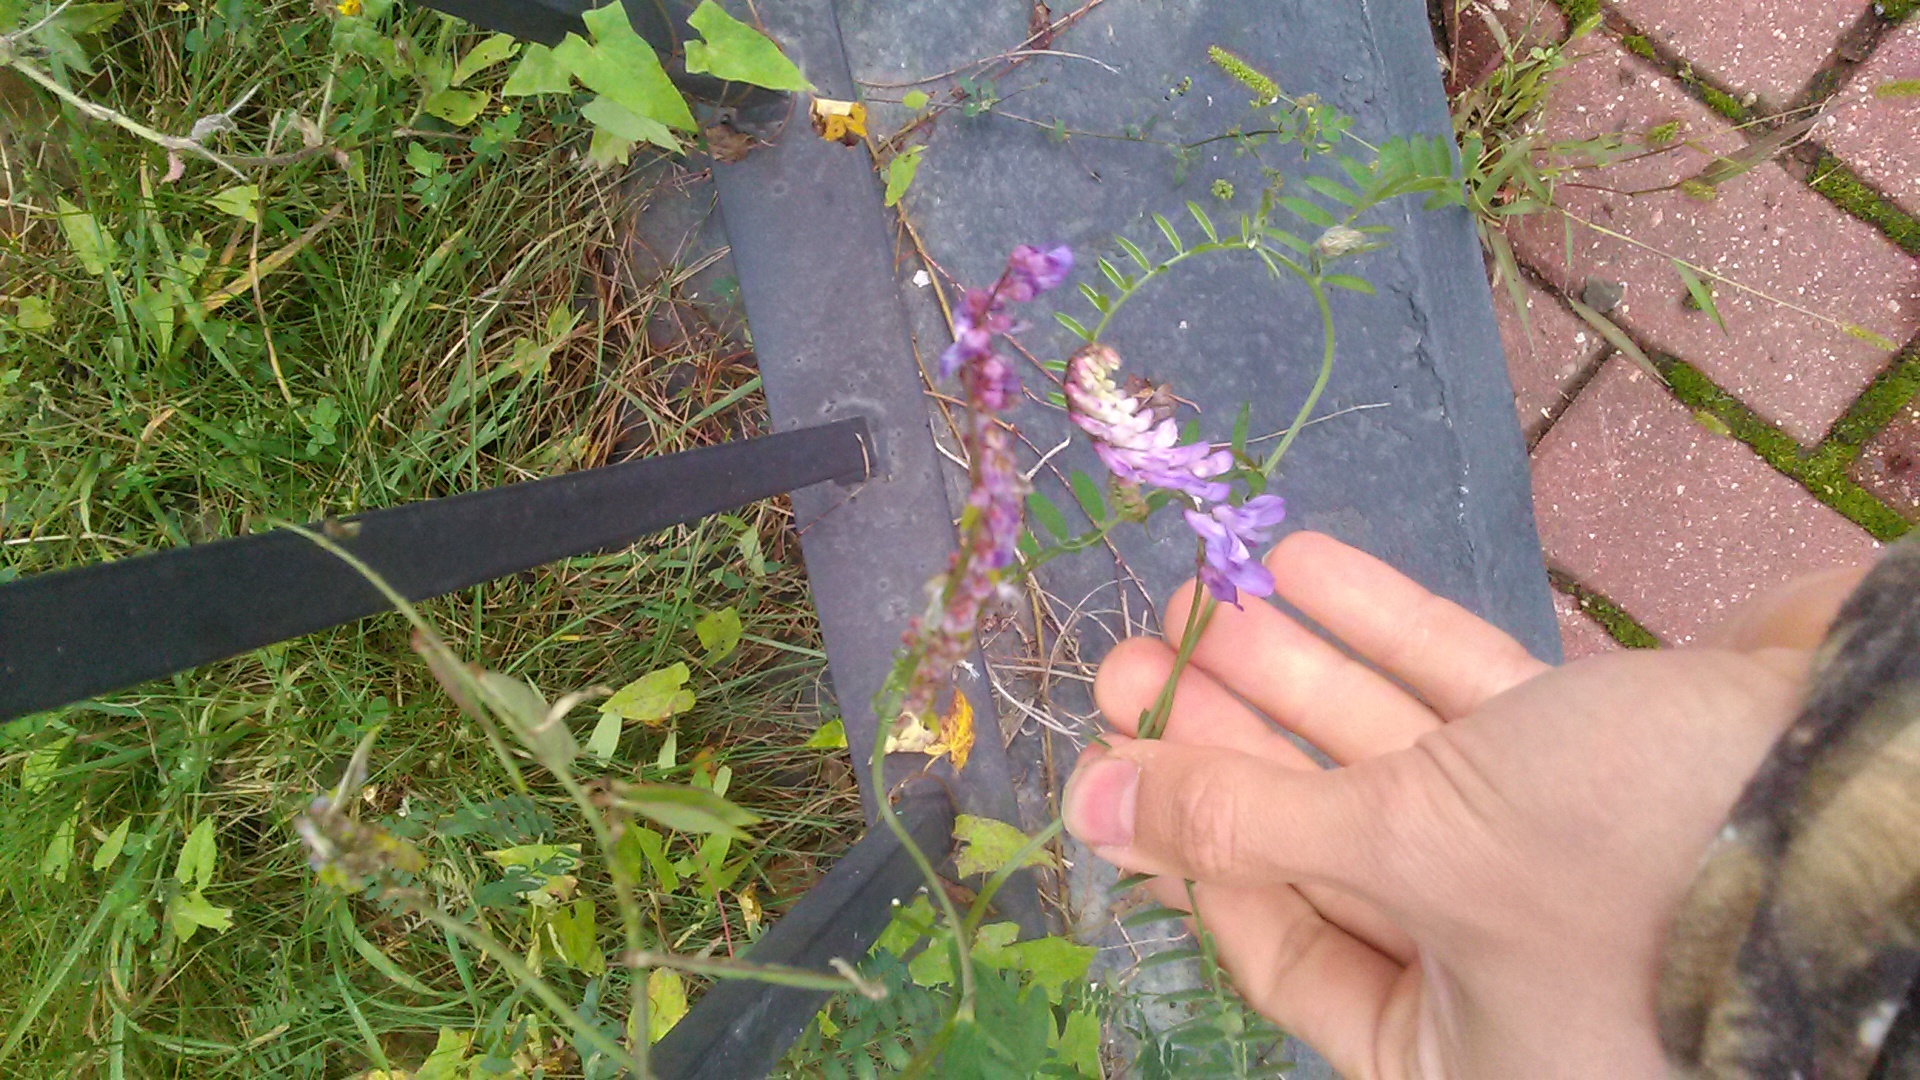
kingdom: Plantae
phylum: Tracheophyta
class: Magnoliopsida
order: Fabales
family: Fabaceae
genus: Vicia
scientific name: Vicia cracca
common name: Bird vetch
